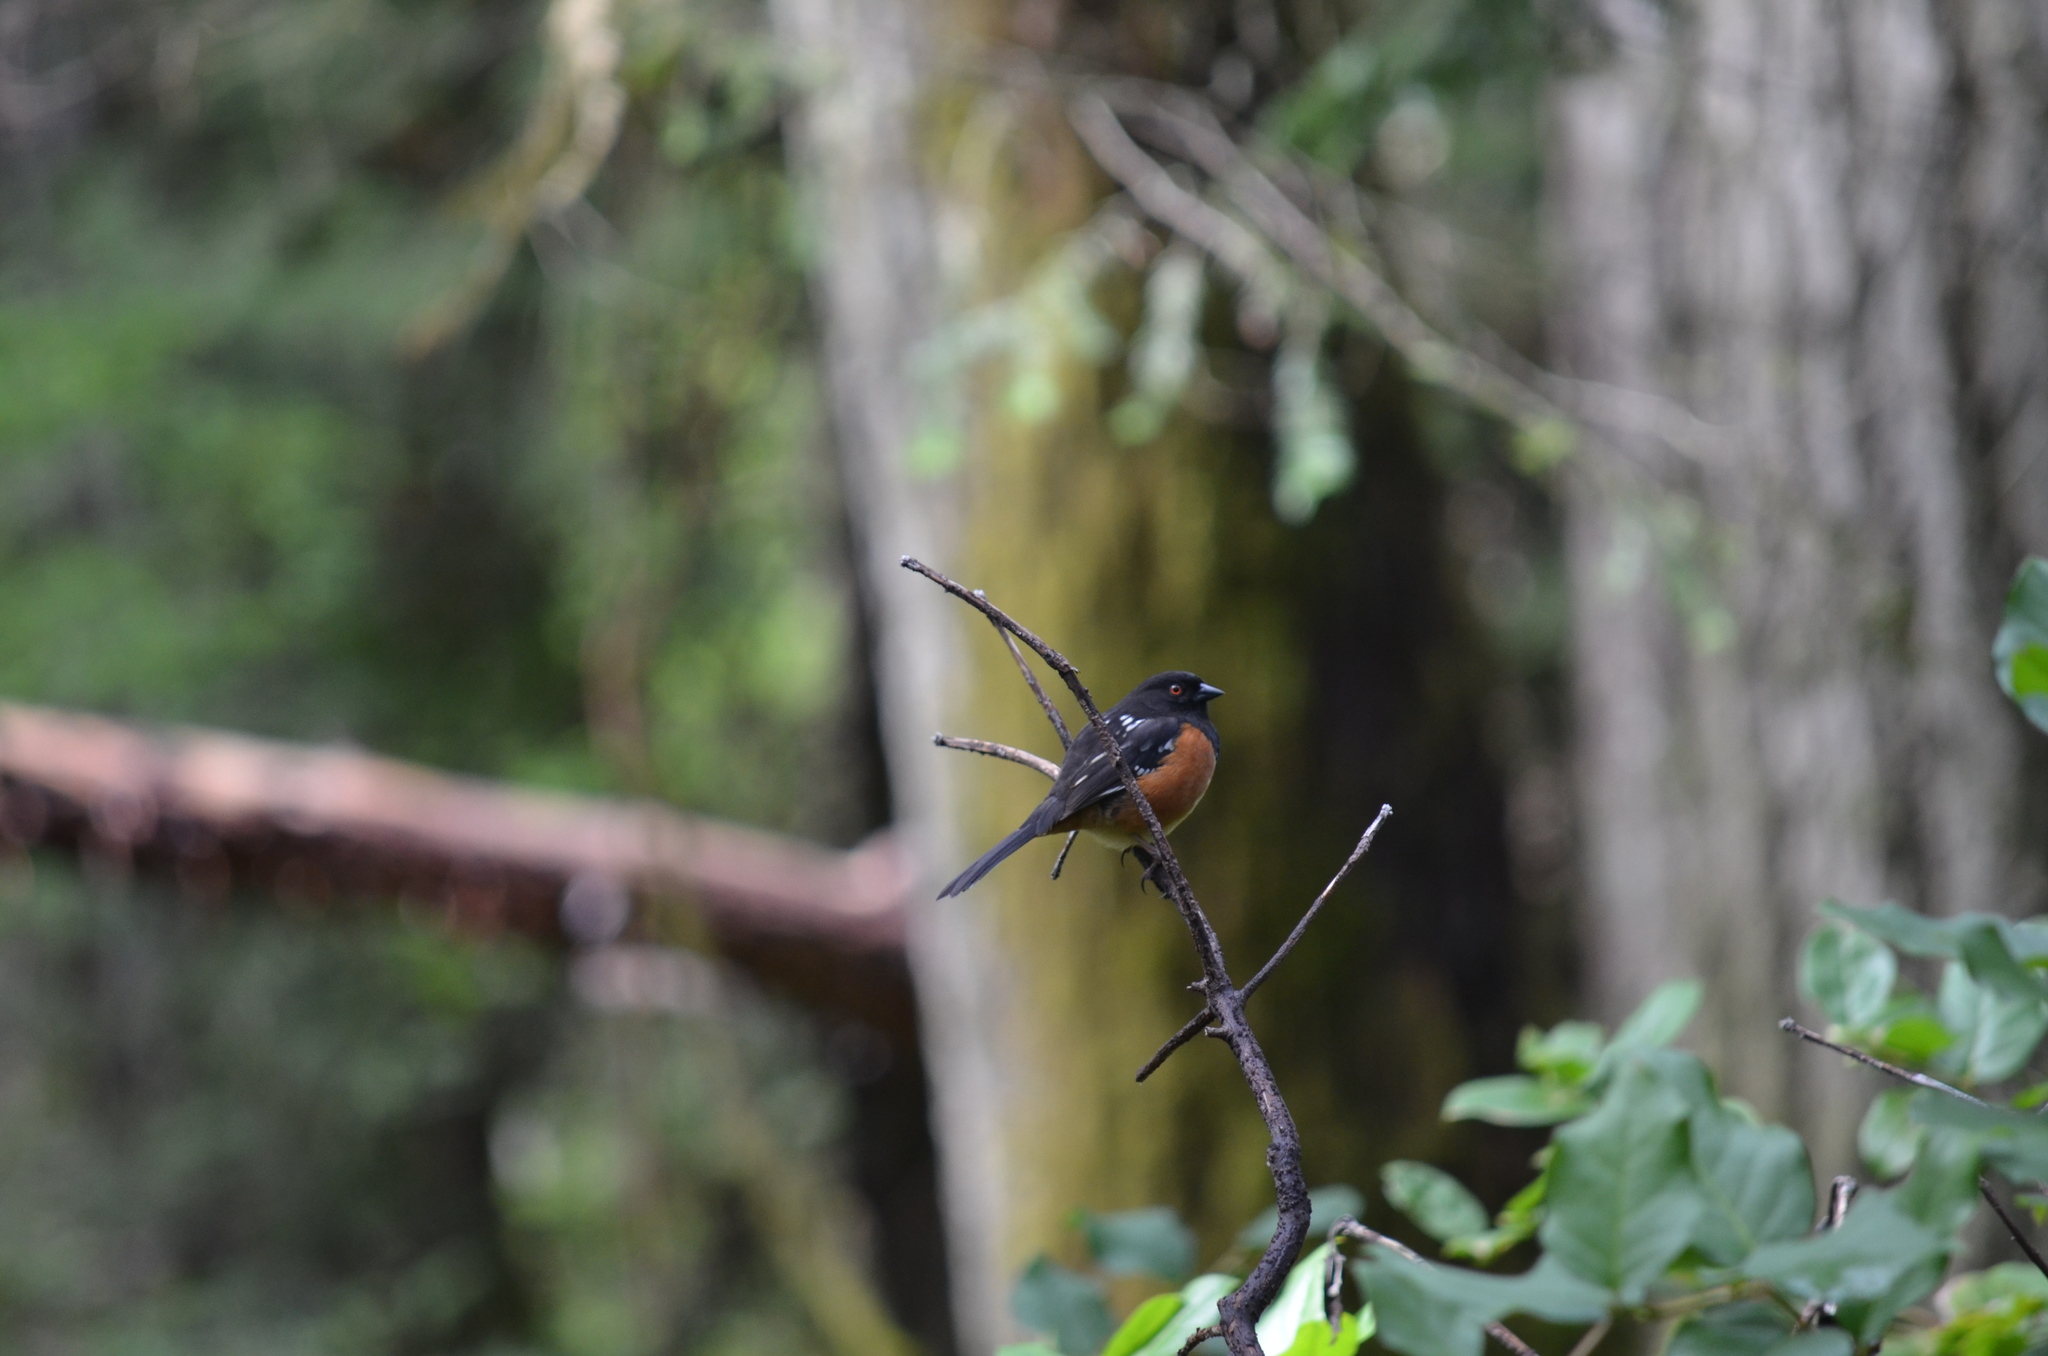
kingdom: Animalia
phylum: Chordata
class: Aves
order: Passeriformes
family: Passerellidae
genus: Pipilo
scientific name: Pipilo maculatus
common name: Spotted towhee
